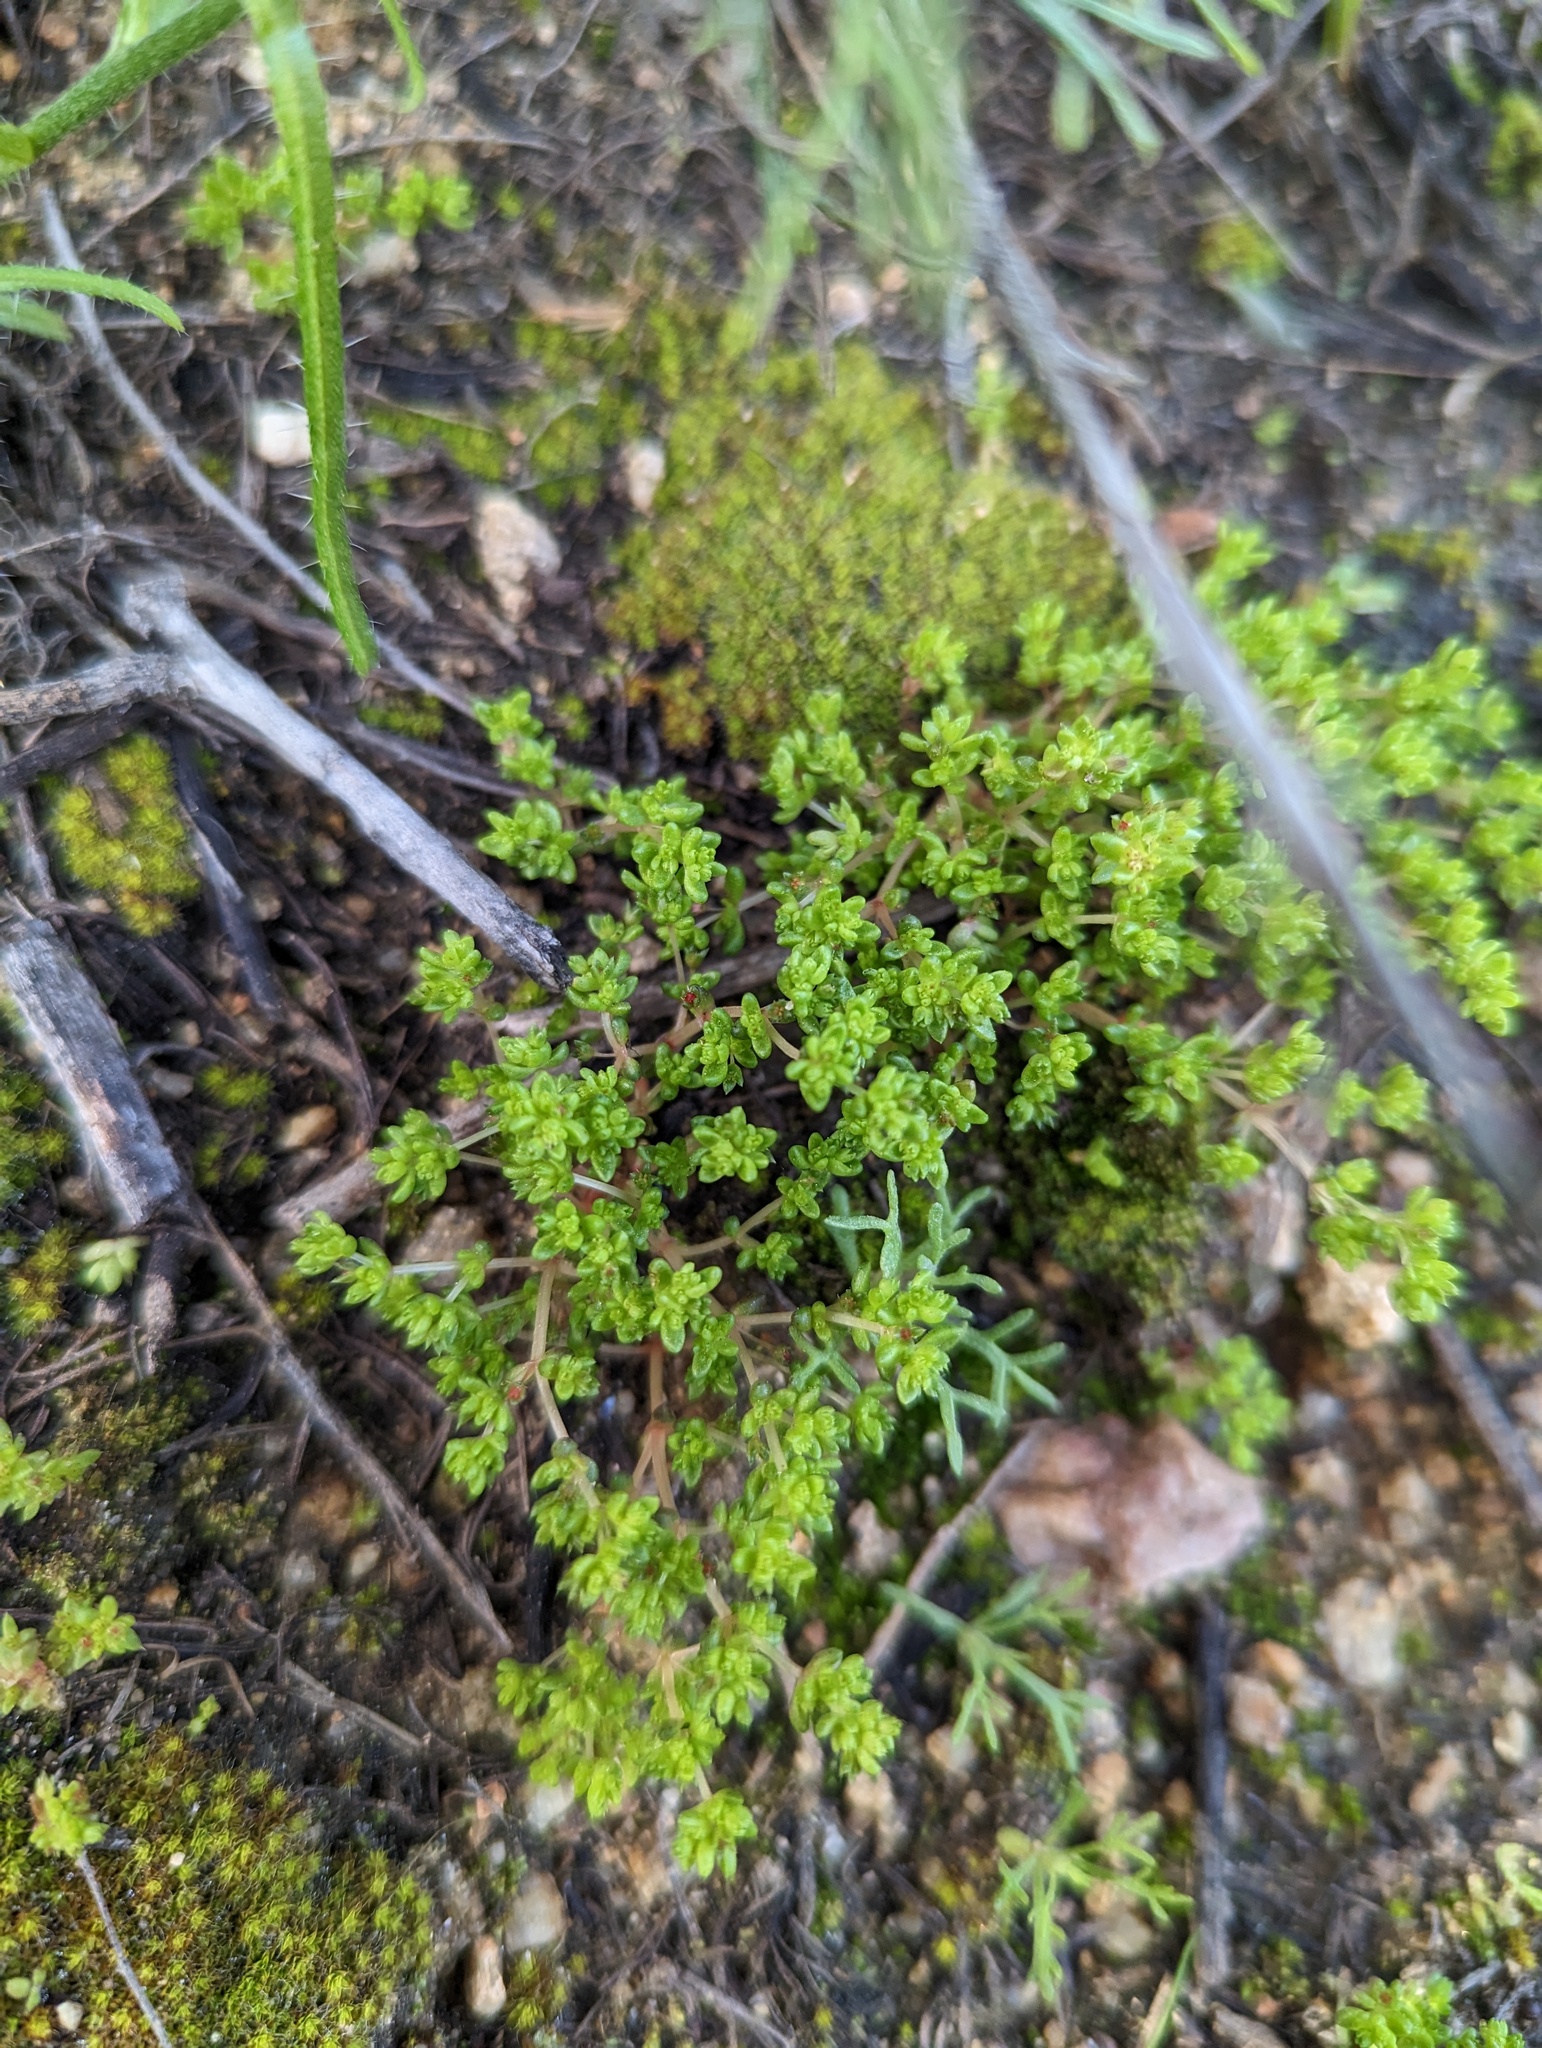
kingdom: Plantae
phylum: Tracheophyta
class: Magnoliopsida
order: Saxifragales
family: Crassulaceae
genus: Crassula
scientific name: Crassula connata
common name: Erect pygmyweed
